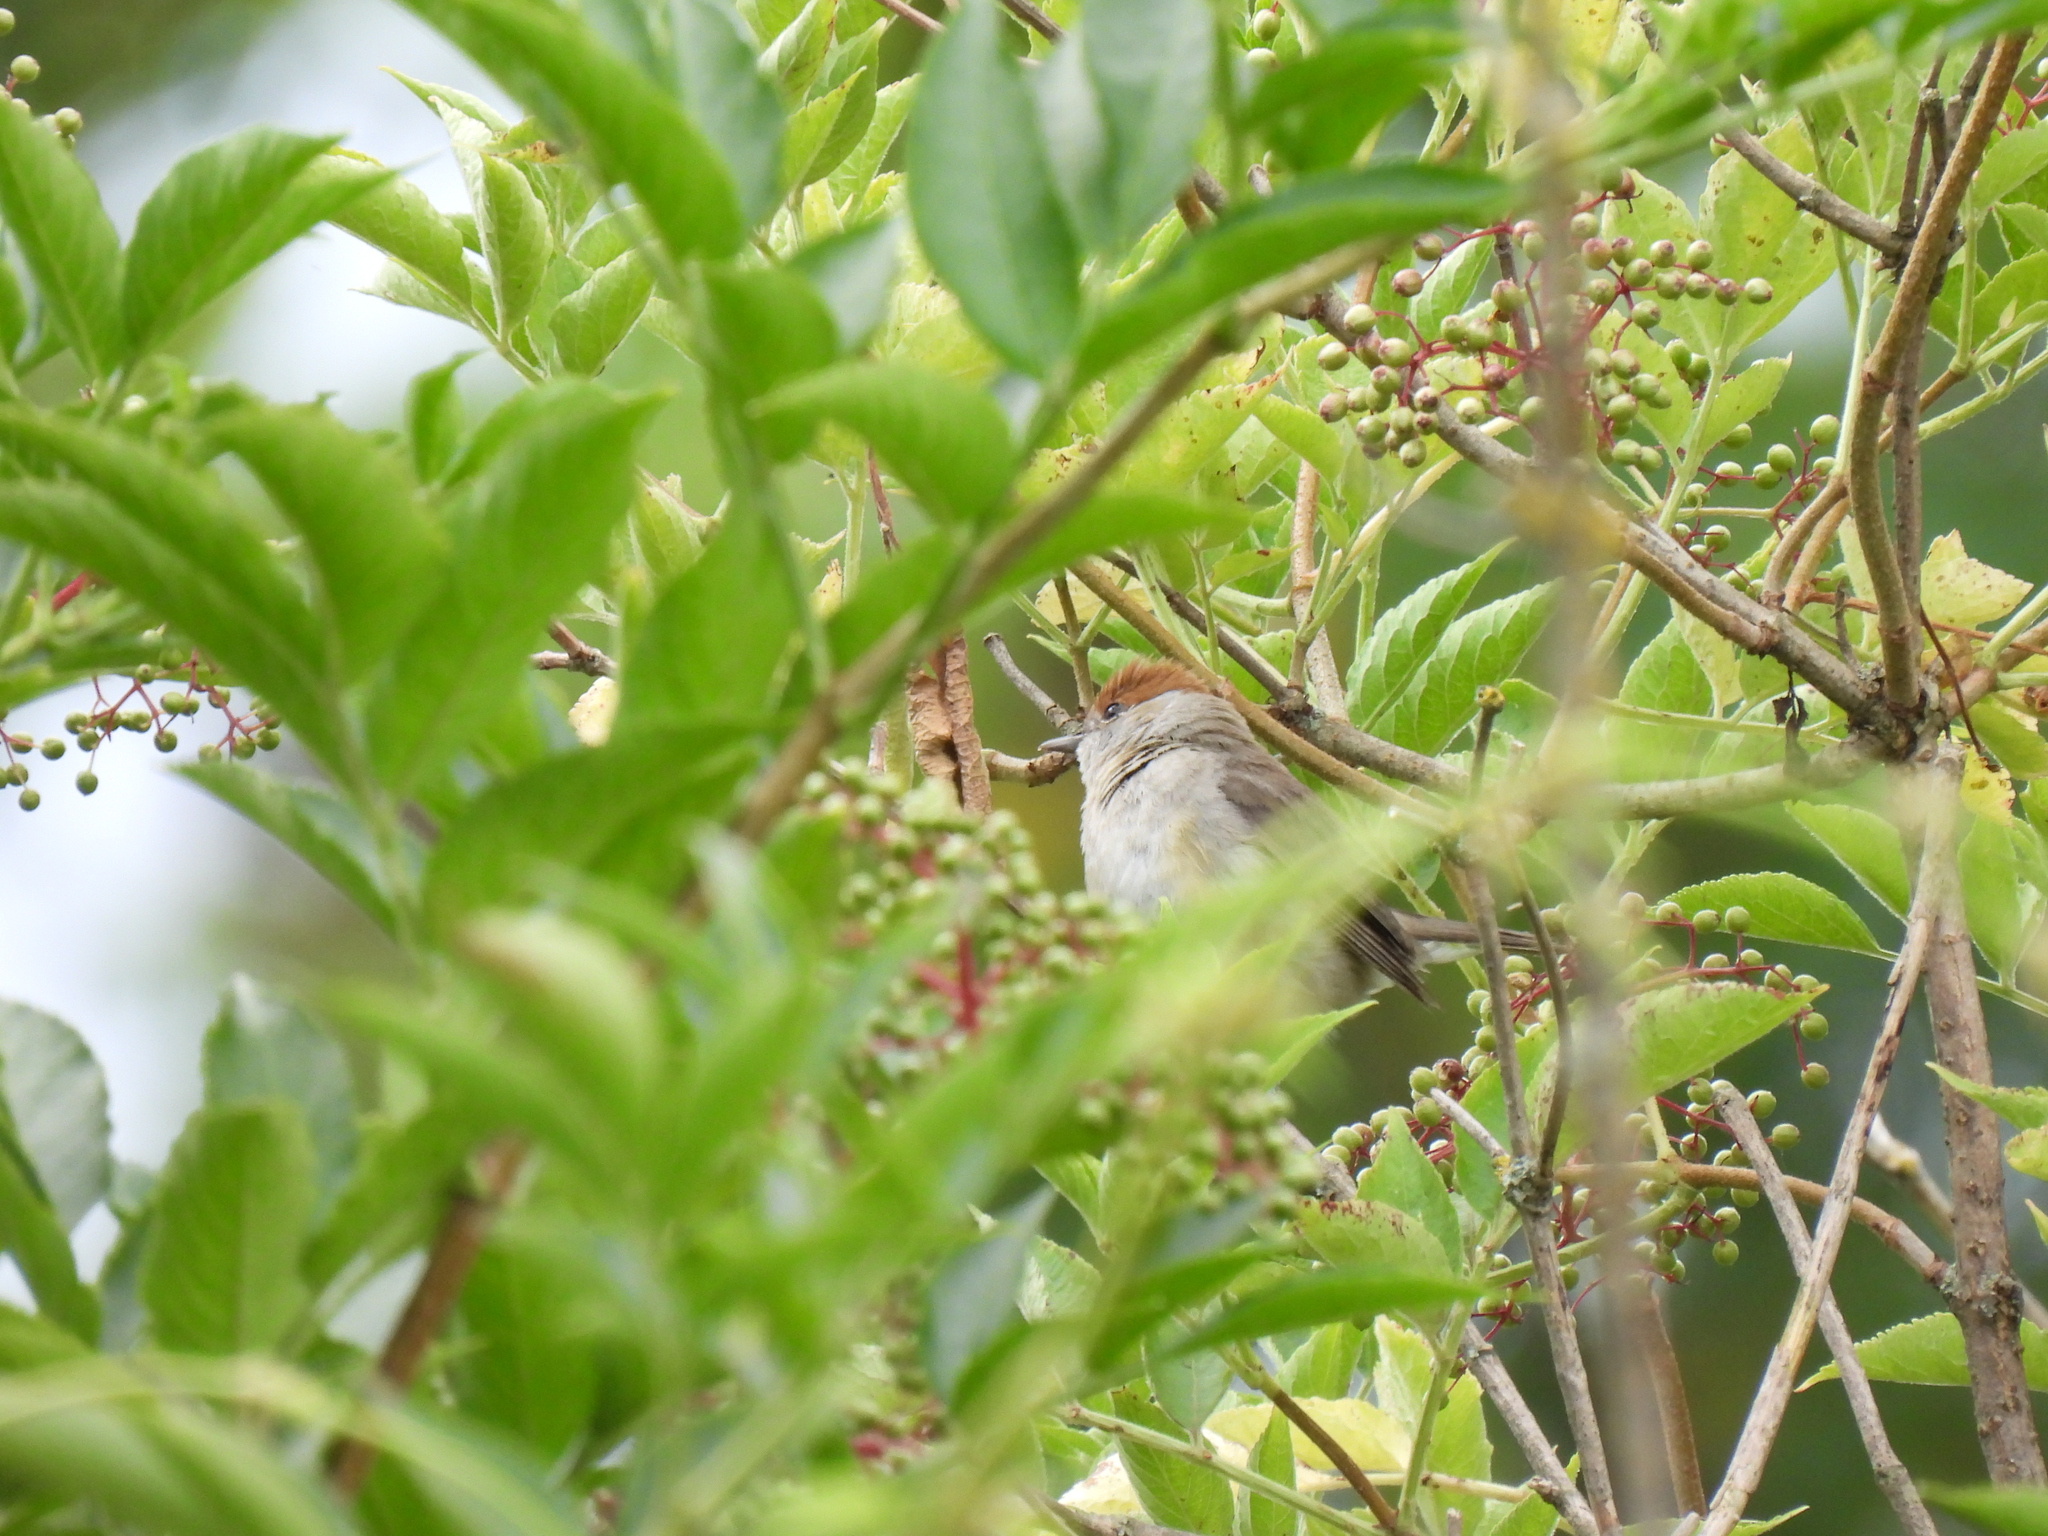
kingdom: Animalia
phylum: Chordata
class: Aves
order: Passeriformes
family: Sylviidae
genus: Sylvia
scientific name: Sylvia atricapilla
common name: Eurasian blackcap
